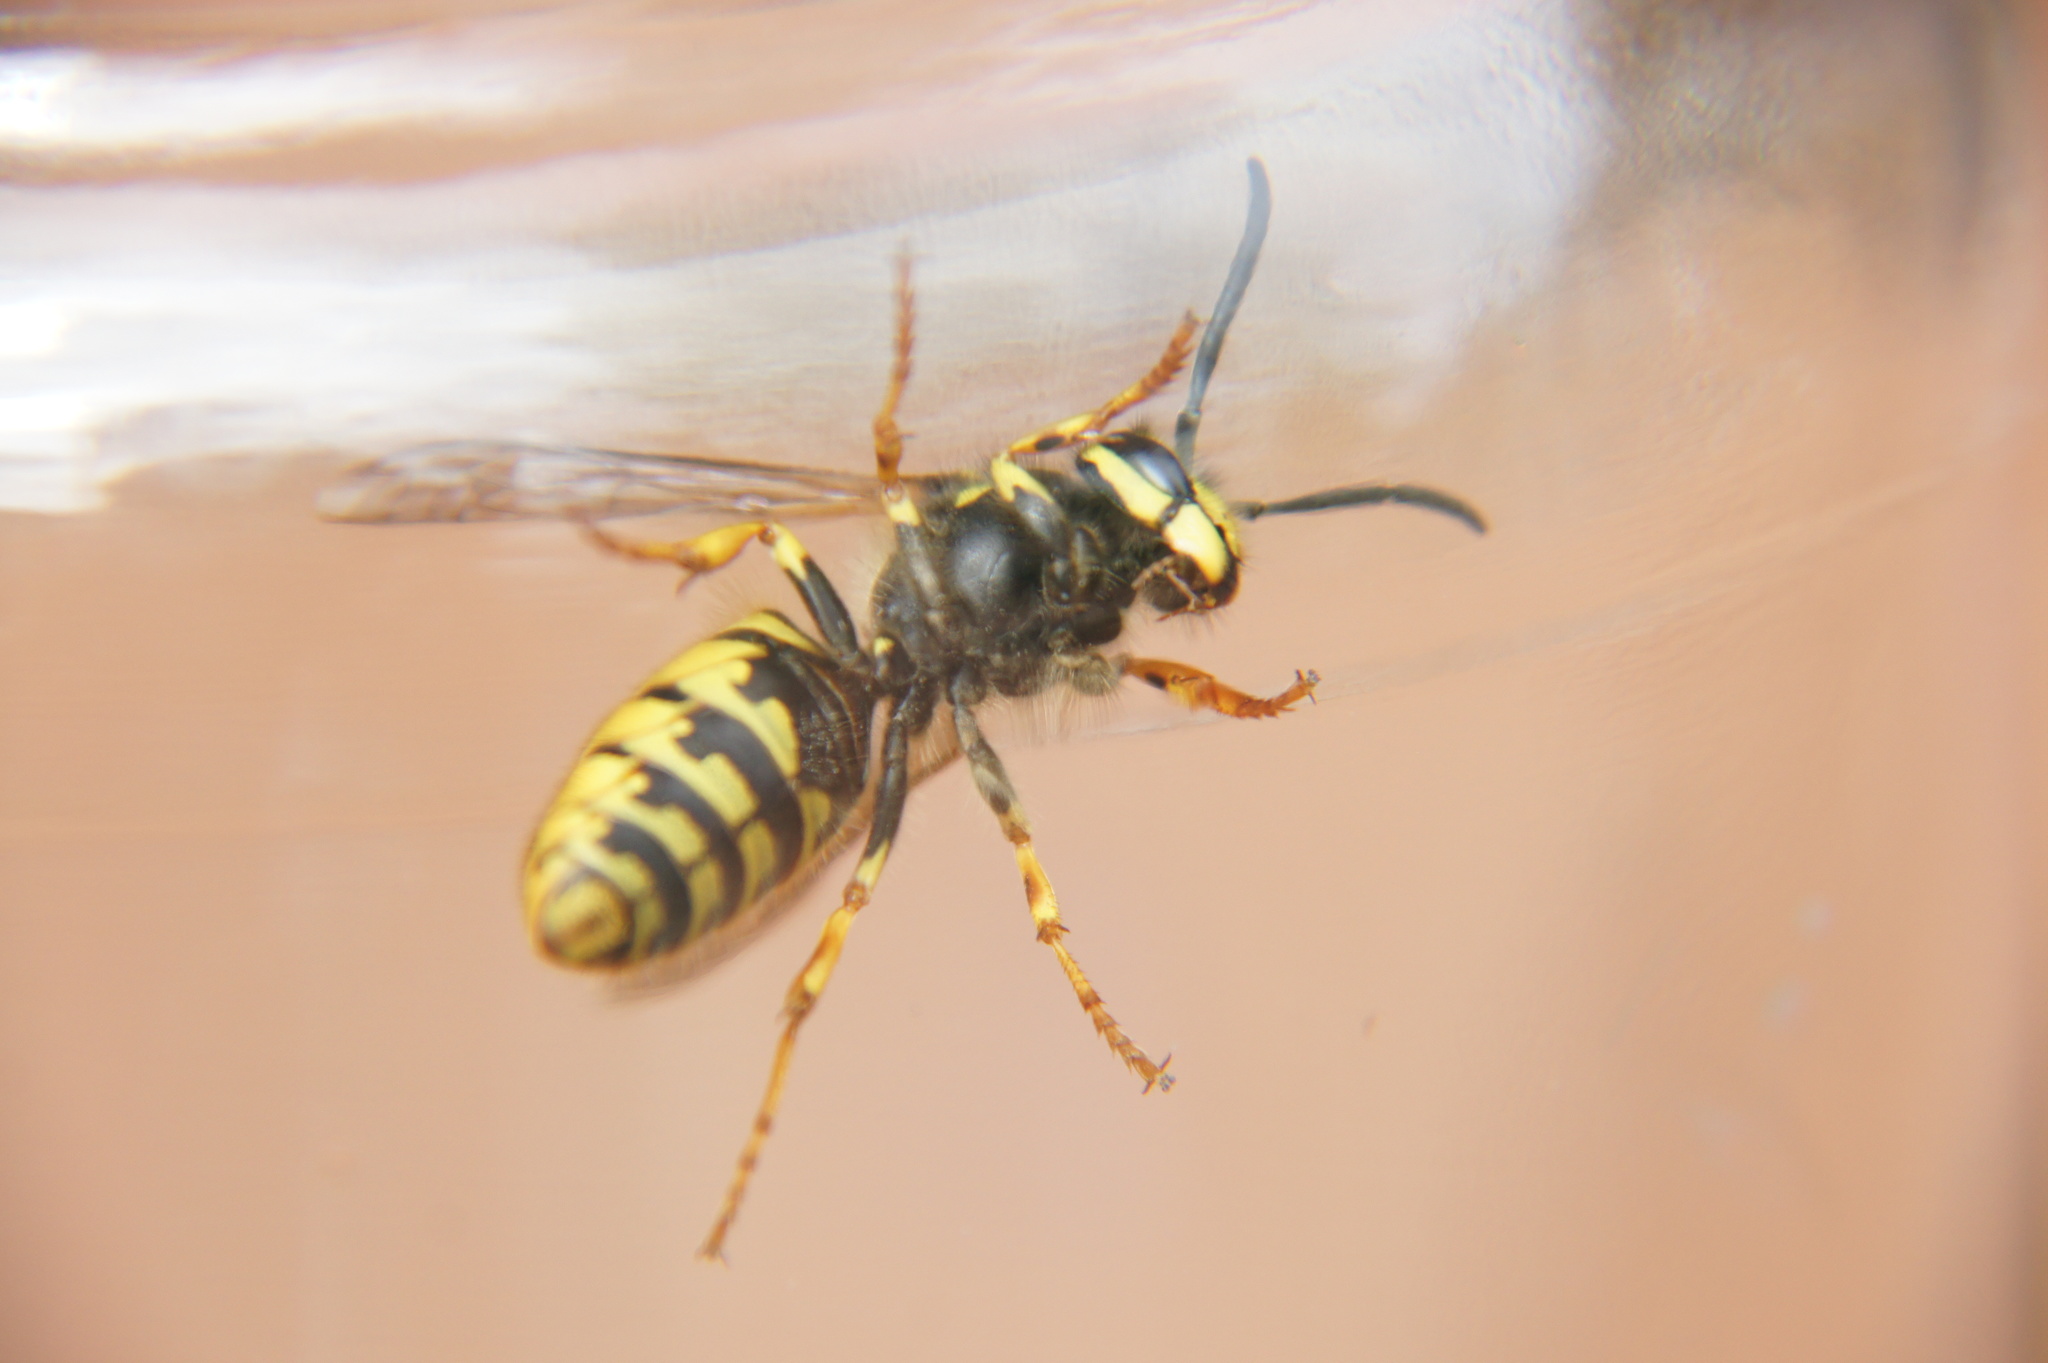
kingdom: Animalia
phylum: Arthropoda
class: Insecta
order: Hymenoptera
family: Vespidae
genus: Vespula
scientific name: Vespula germanica
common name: German wasp
